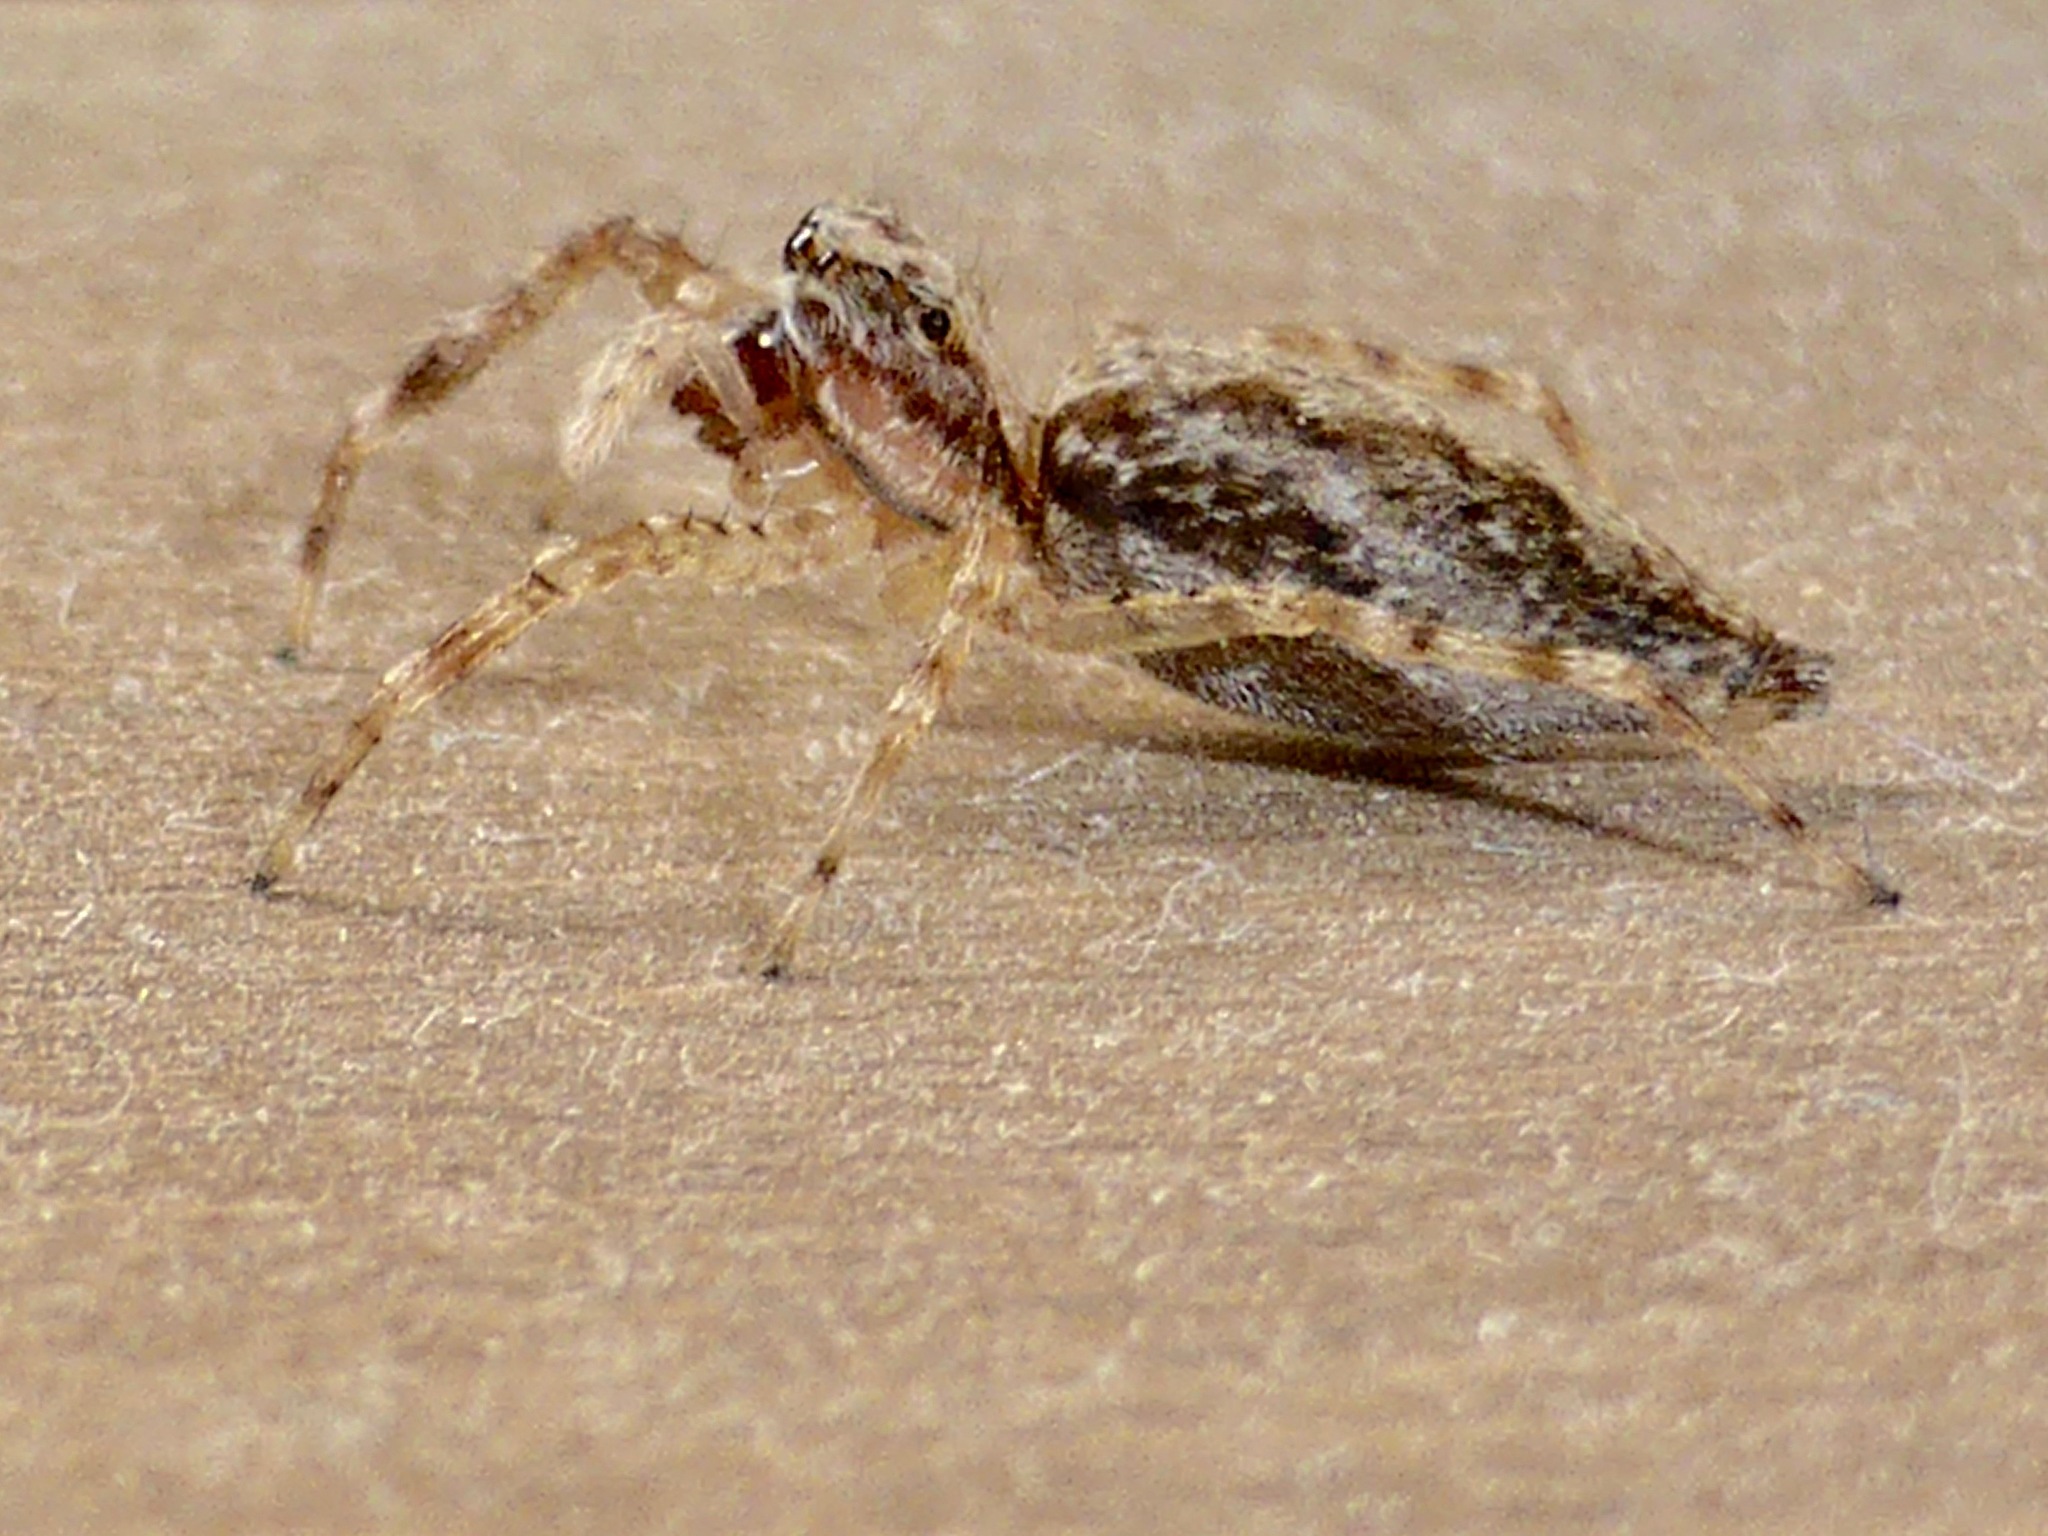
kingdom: Animalia
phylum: Arthropoda
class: Arachnida
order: Araneae
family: Salticidae
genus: Helpis
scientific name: Helpis minitabunda
